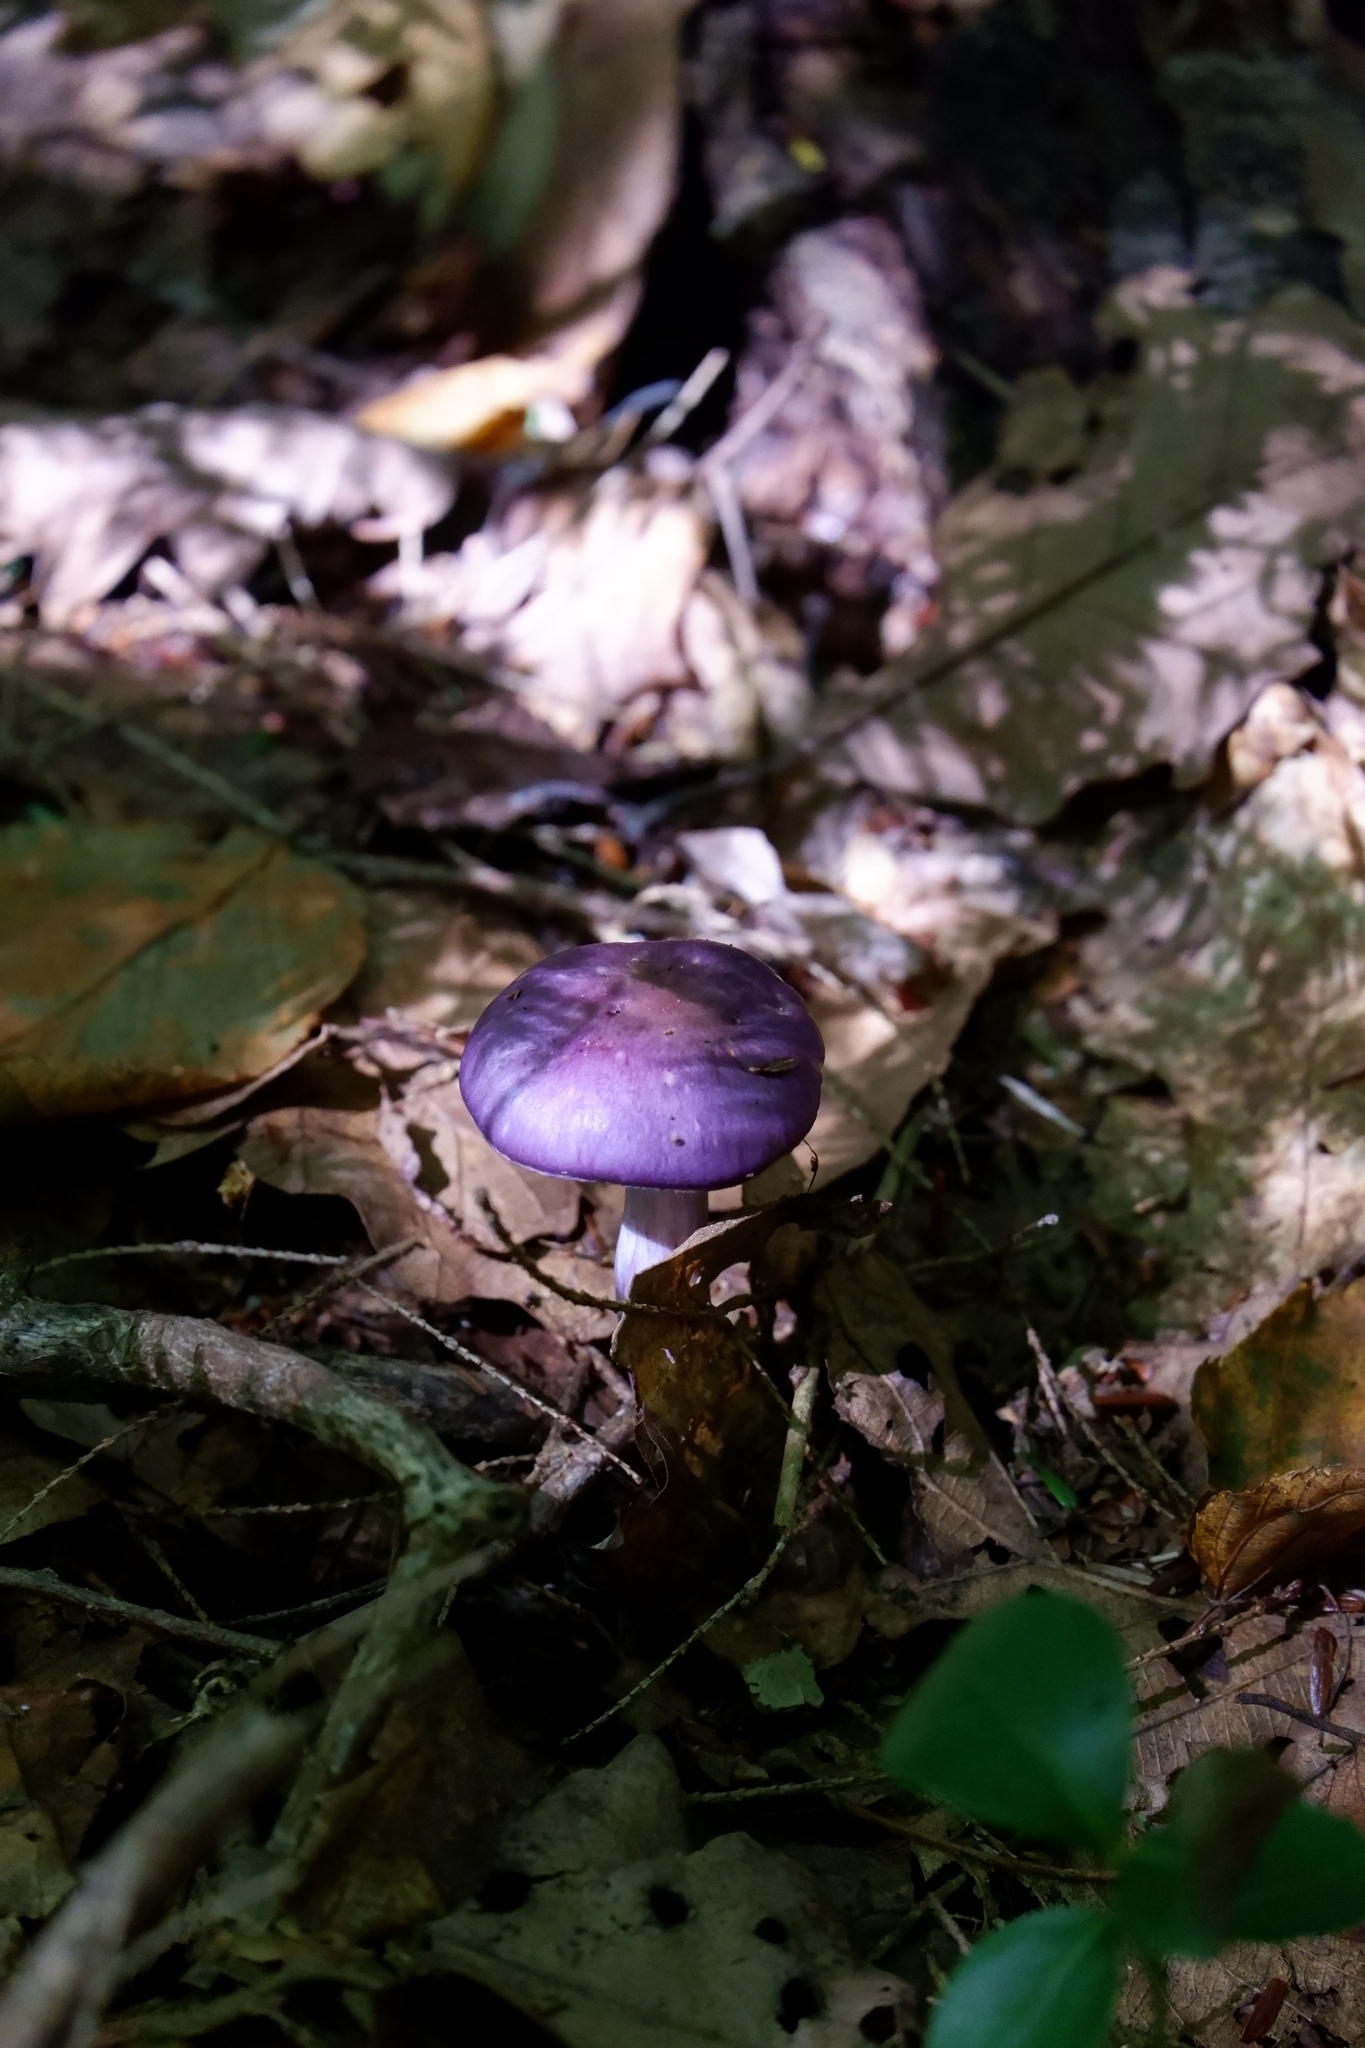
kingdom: Fungi
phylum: Basidiomycota
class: Agaricomycetes
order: Agaricales
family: Cortinariaceae
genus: Cortinarius
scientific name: Cortinarius iodes
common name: Viscid violet cort
